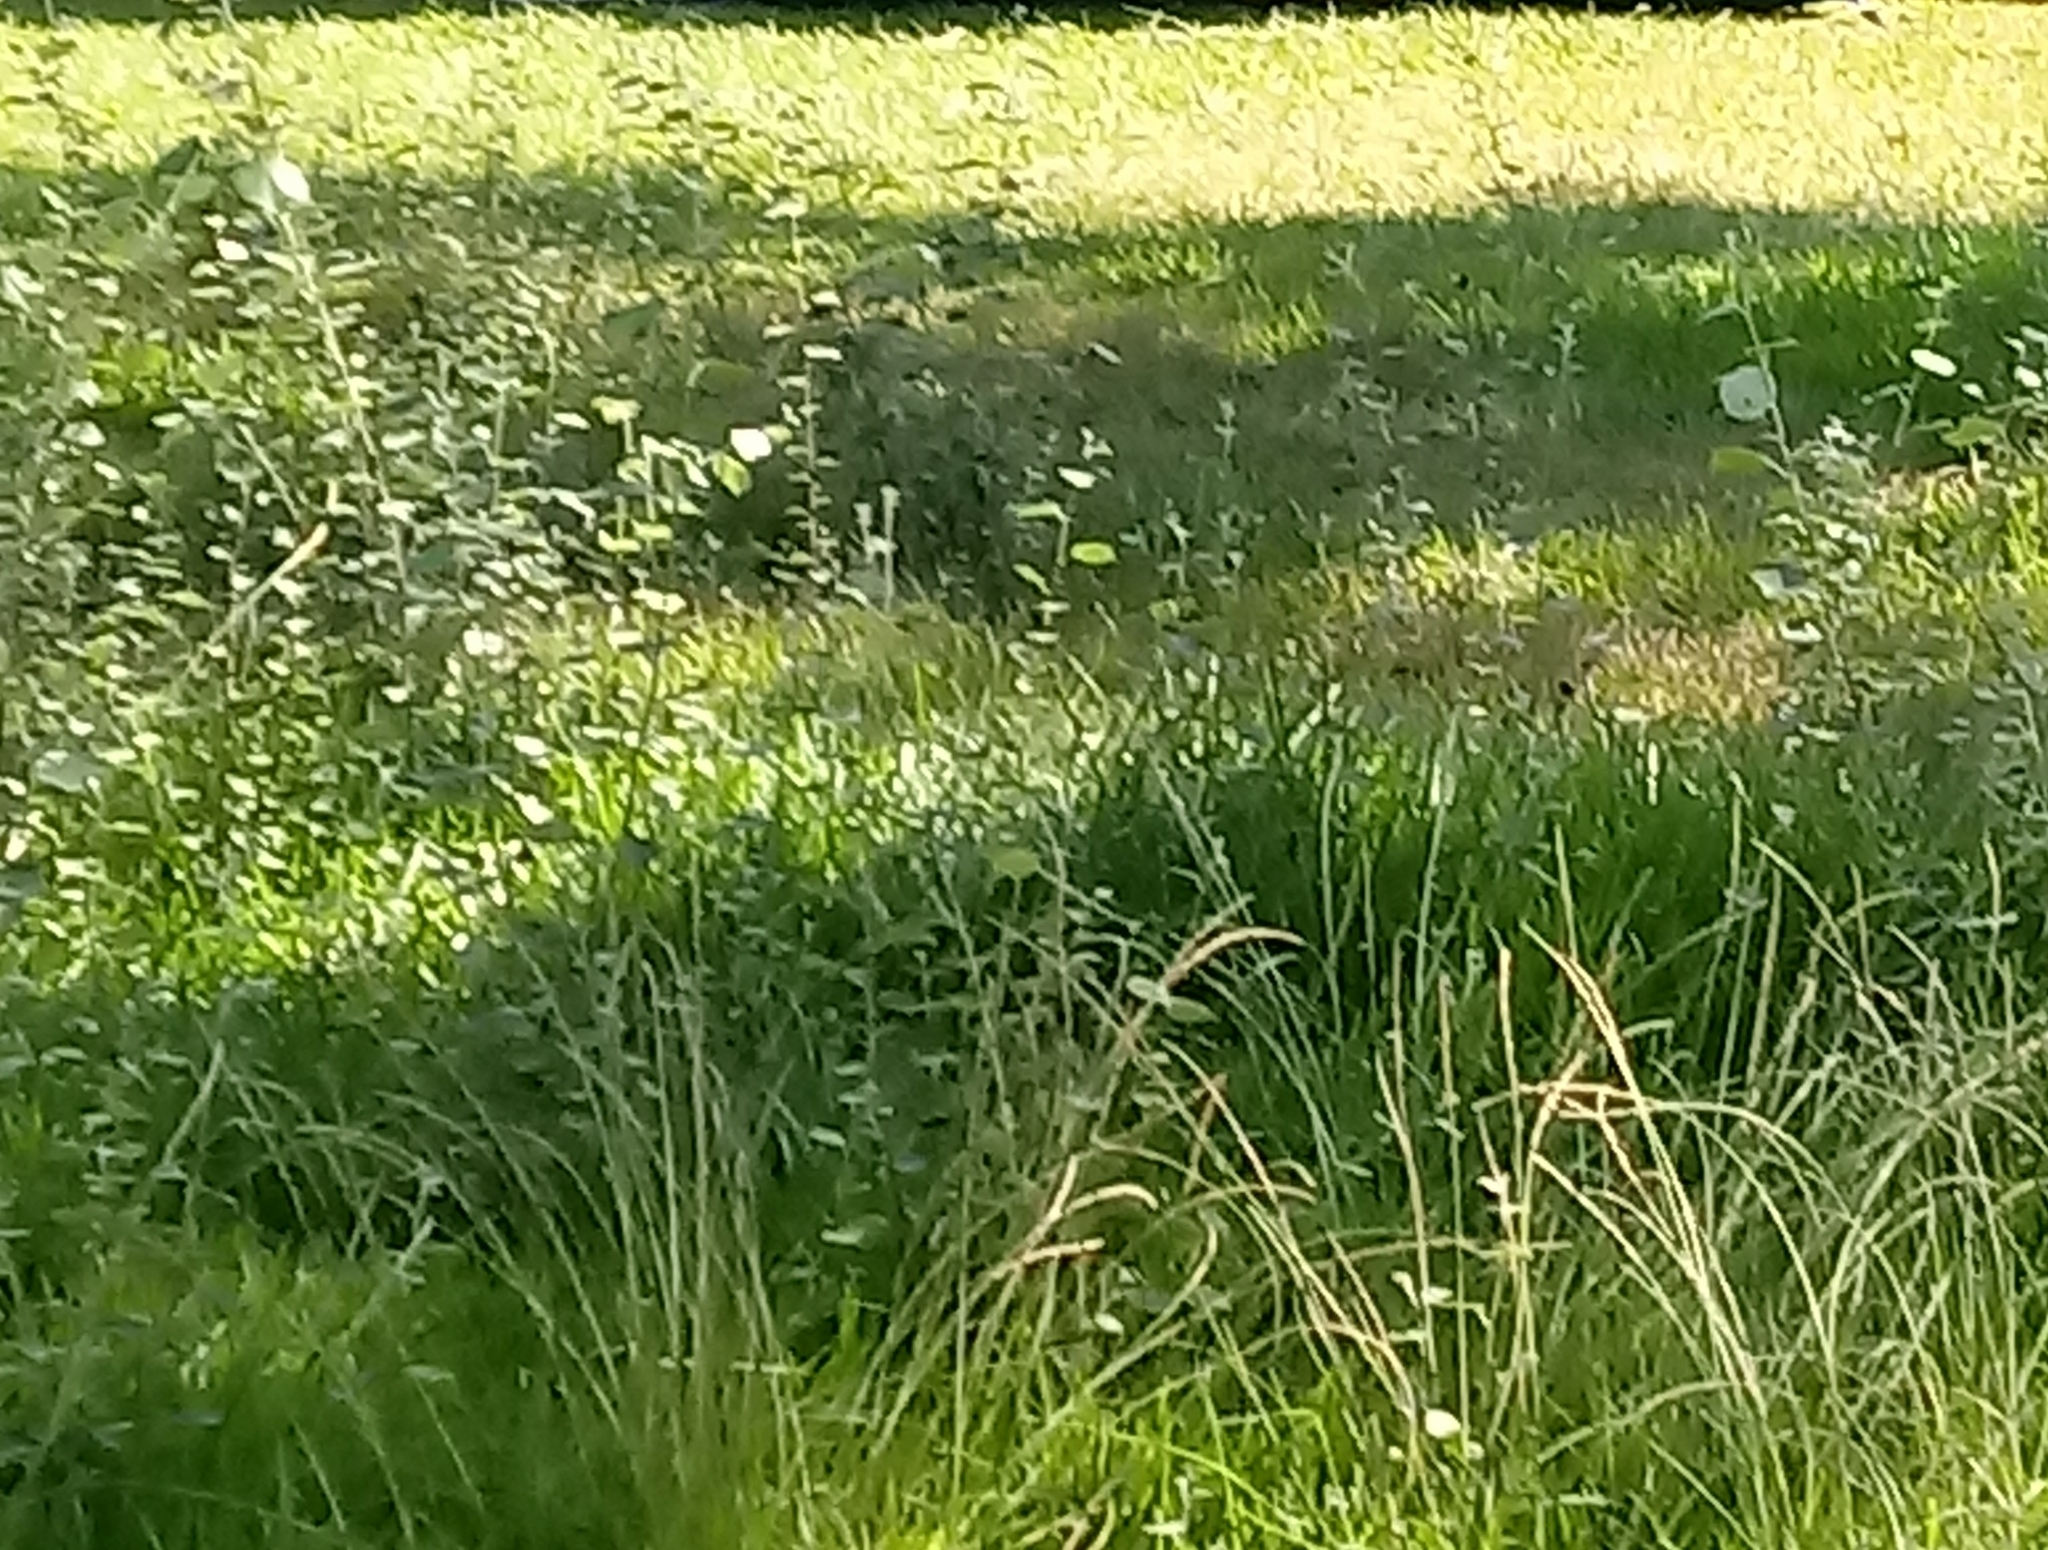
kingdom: Plantae
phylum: Tracheophyta
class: Magnoliopsida
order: Malpighiales
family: Salicaceae
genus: Populus
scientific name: Populus alba
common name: White poplar
